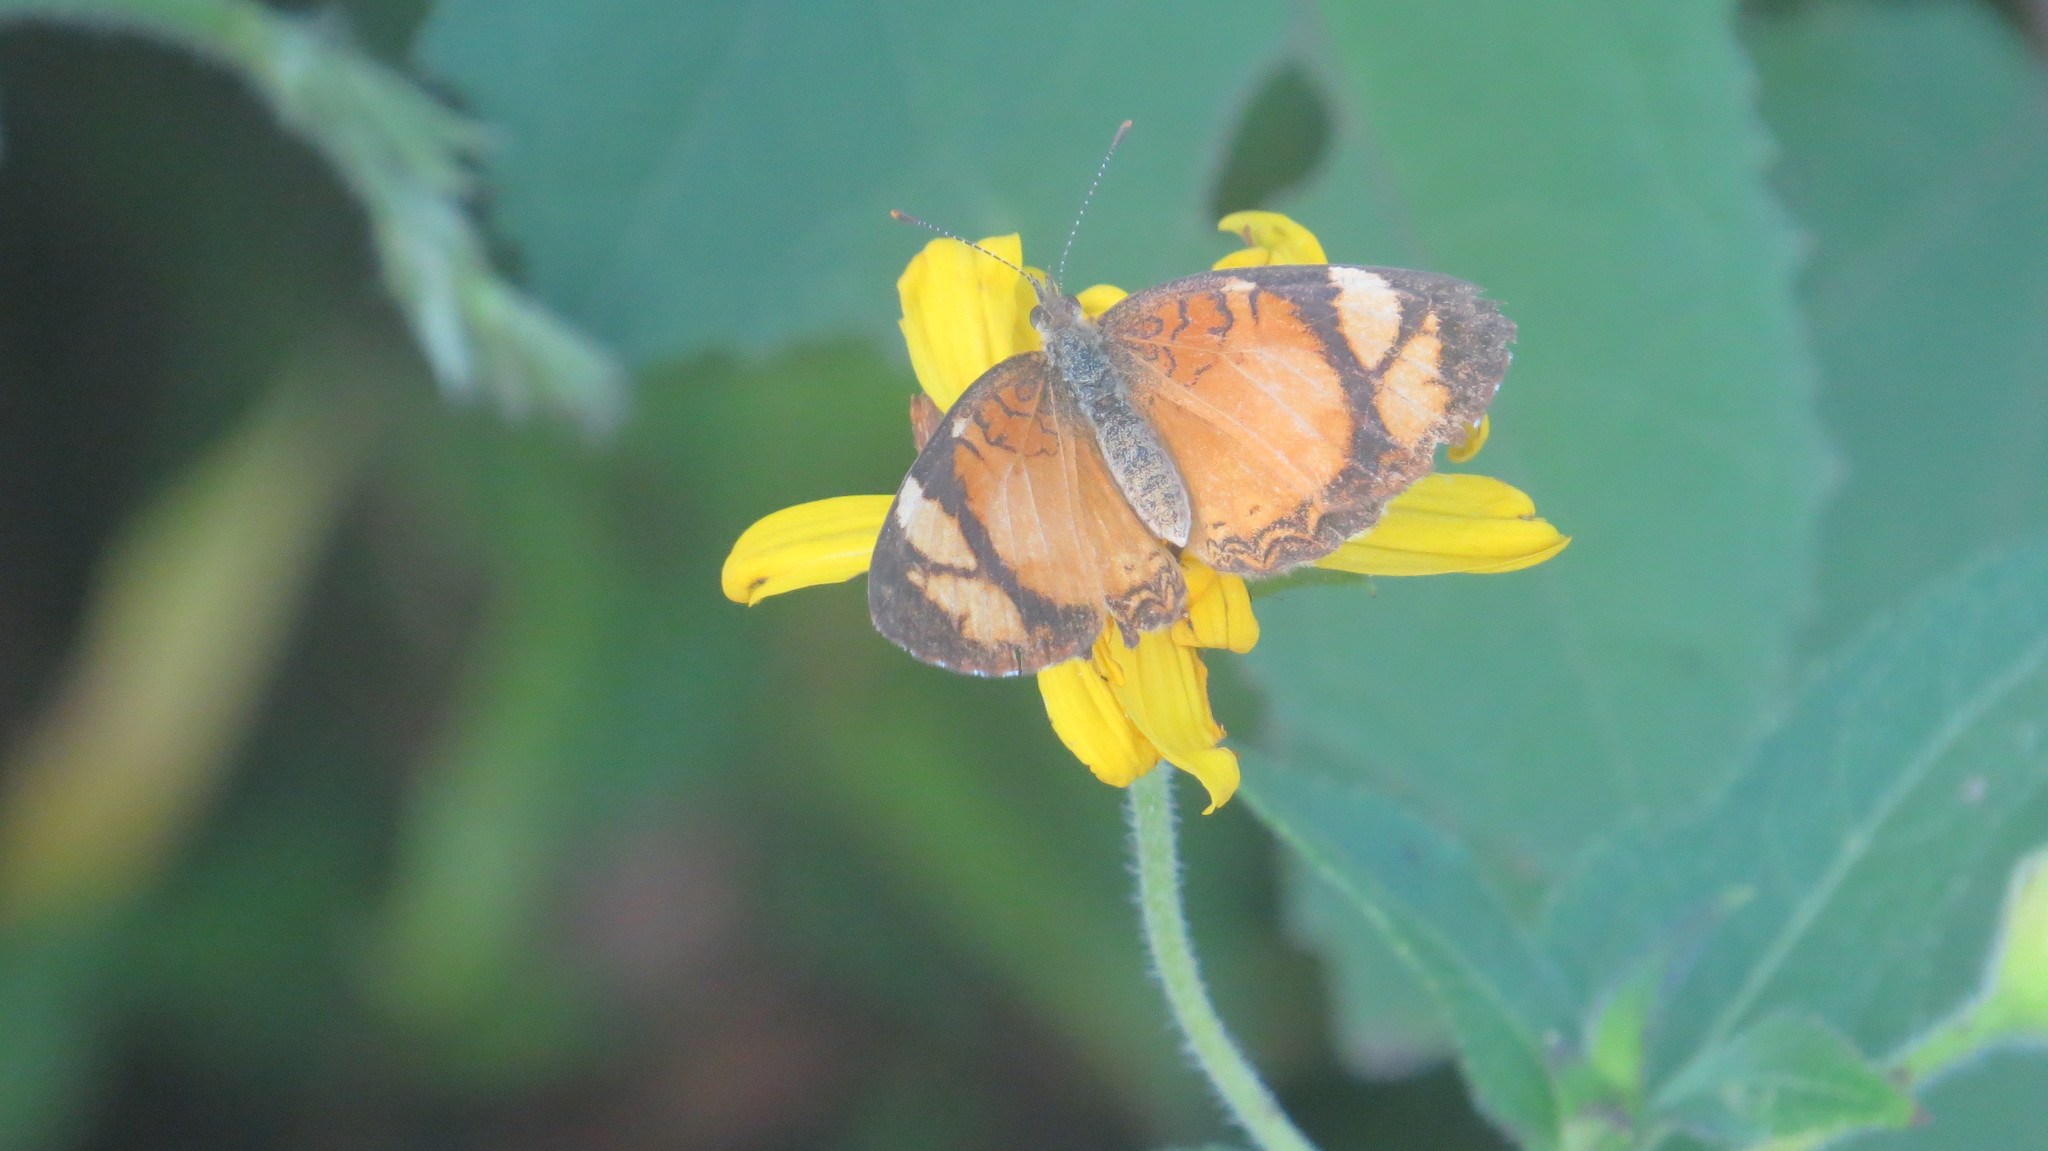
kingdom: Animalia
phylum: Arthropoda
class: Insecta
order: Lepidoptera
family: Nymphalidae
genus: Tegosa
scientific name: Tegosa claudina
